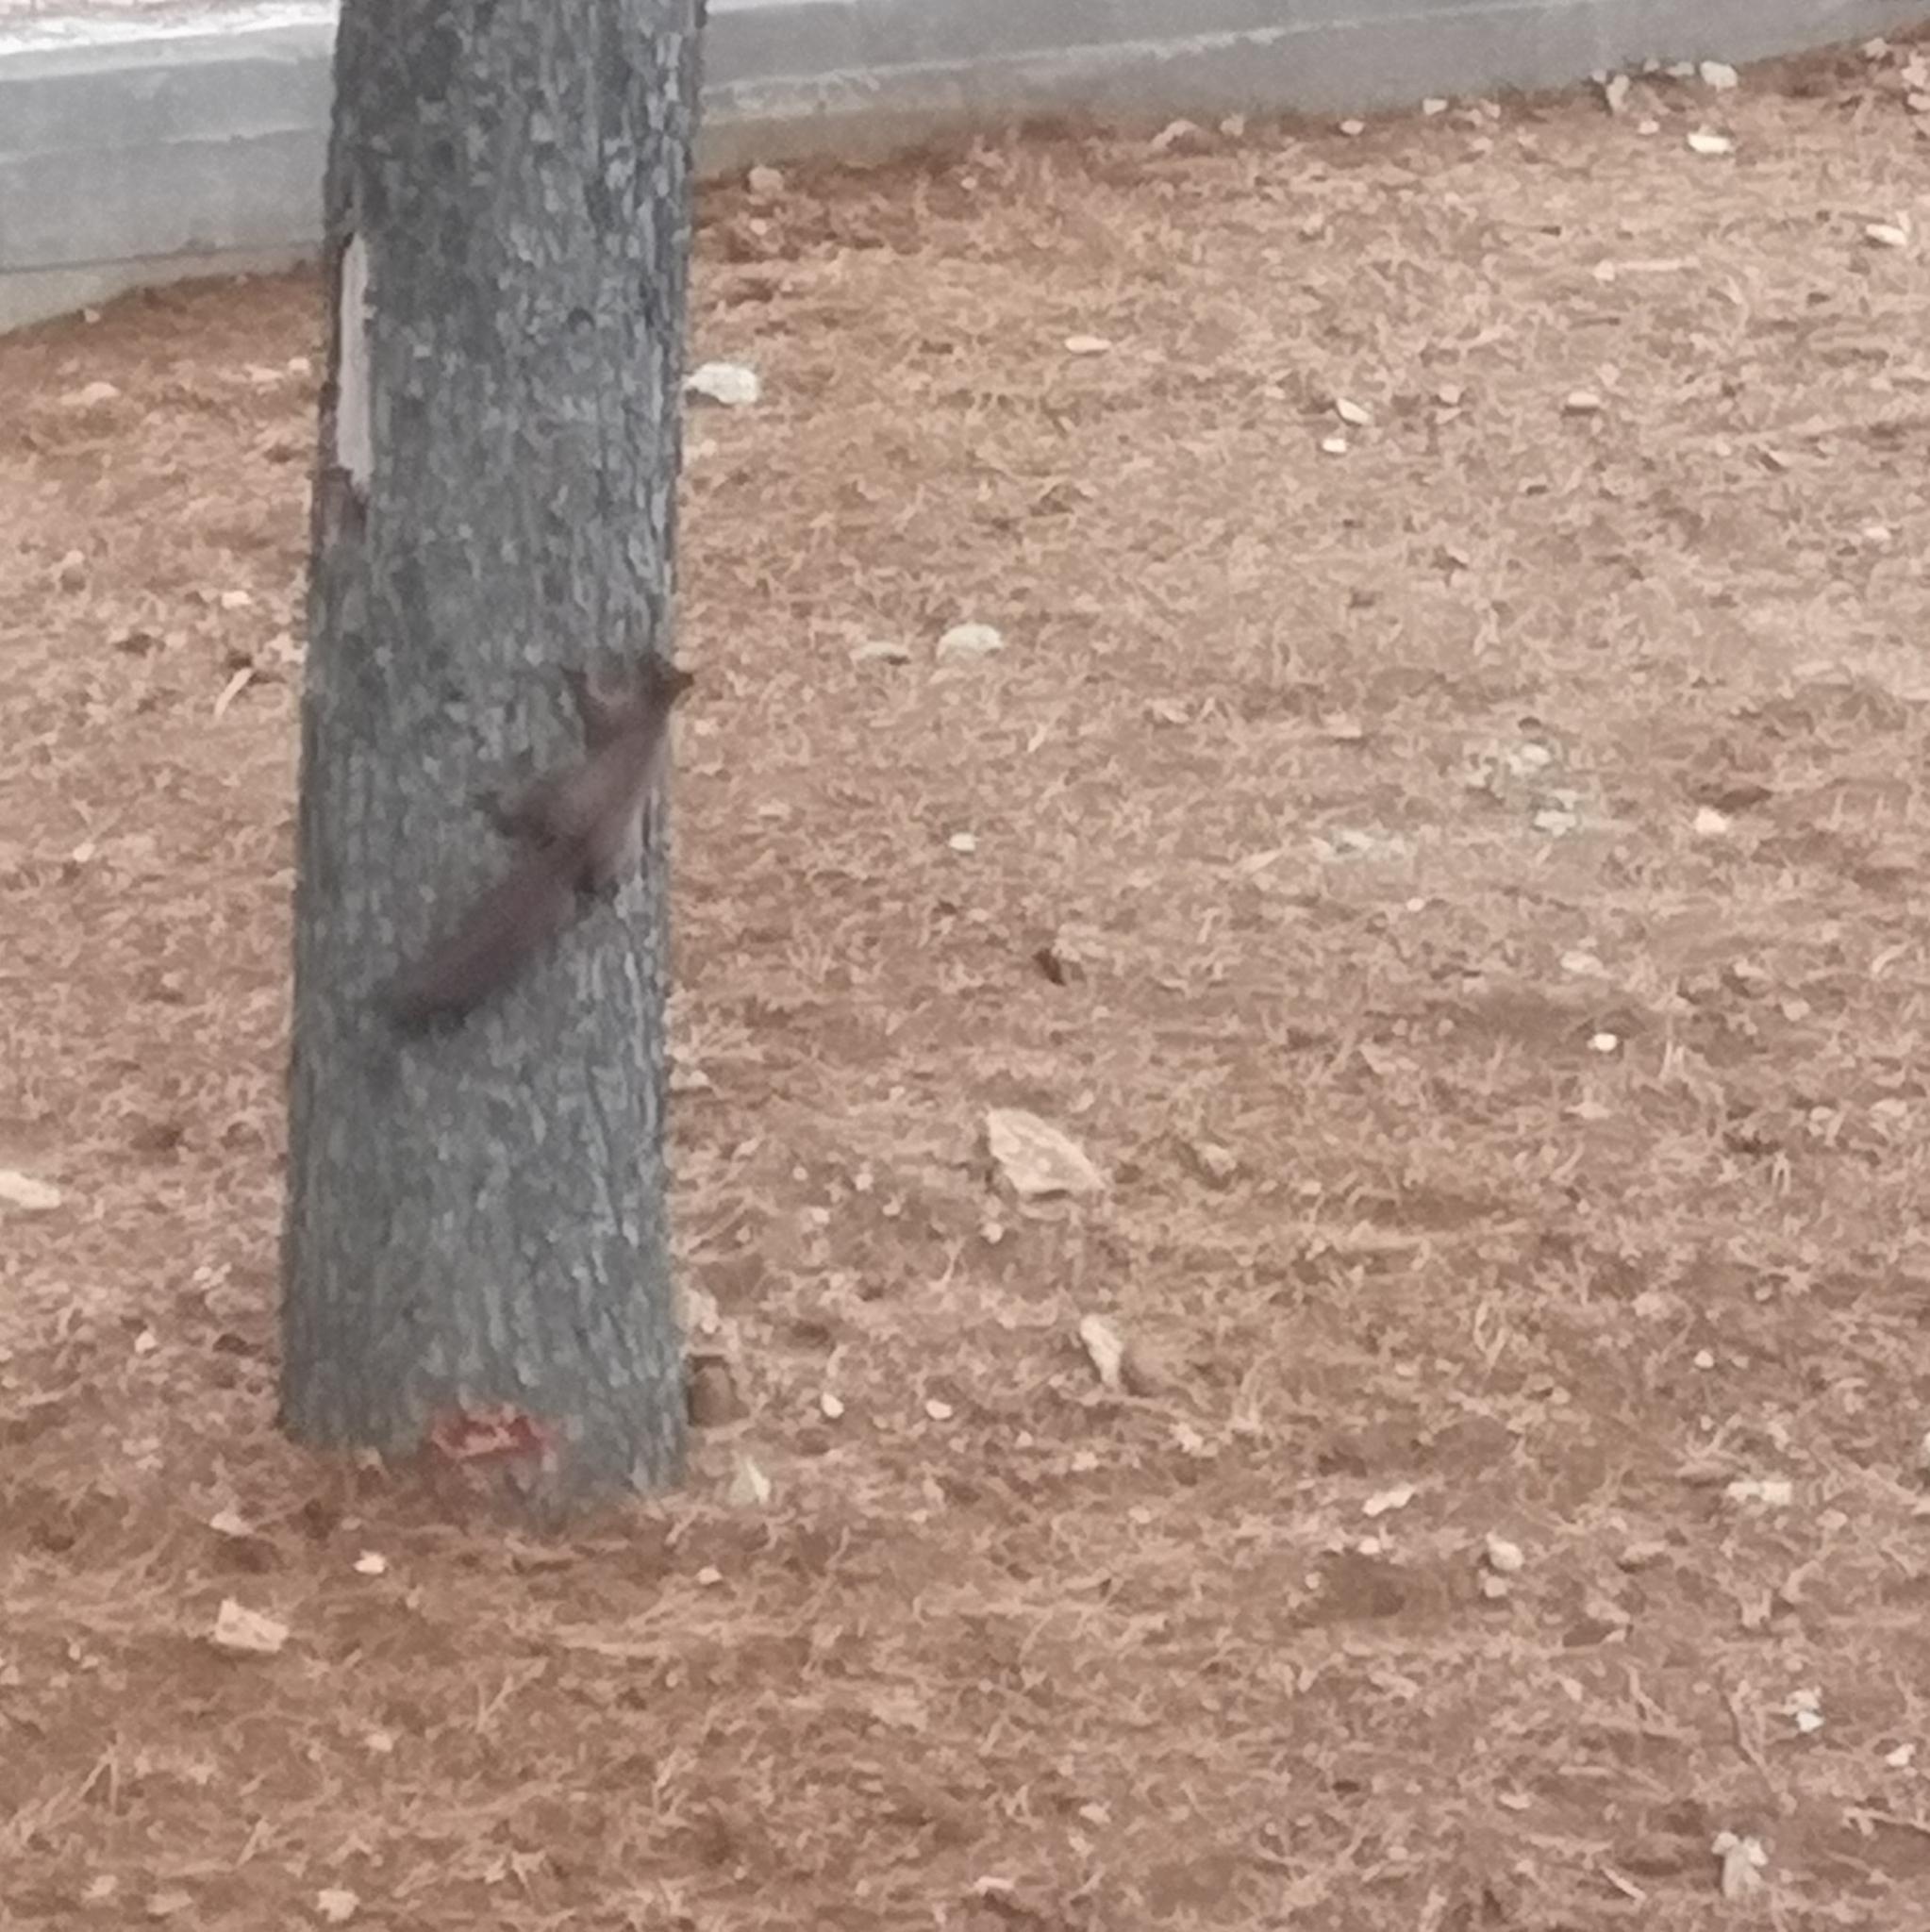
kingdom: Animalia
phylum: Chordata
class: Mammalia
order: Rodentia
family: Sciuridae
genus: Sciurus
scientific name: Sciurus vulgaris
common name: Eurasian red squirrel
